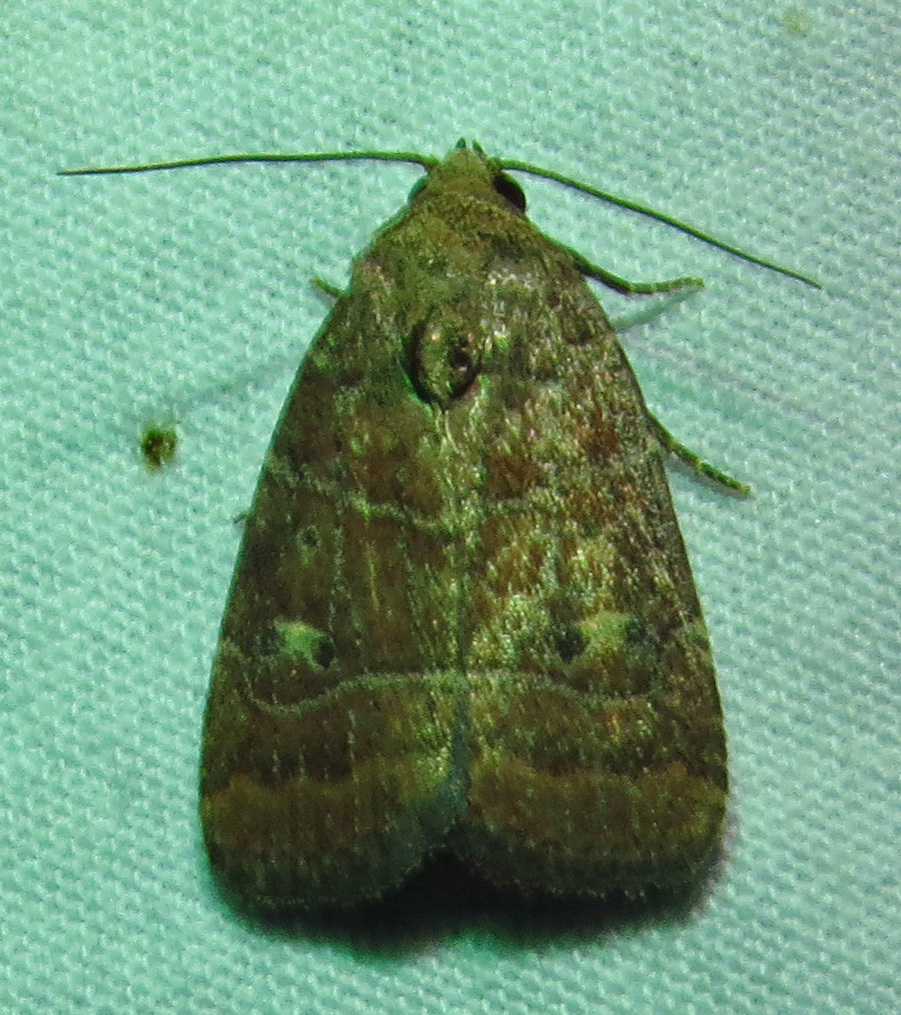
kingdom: Animalia
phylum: Arthropoda
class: Insecta
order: Lepidoptera
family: Noctuidae
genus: Elaphria
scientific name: Elaphria grata
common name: Grateful midget moth
